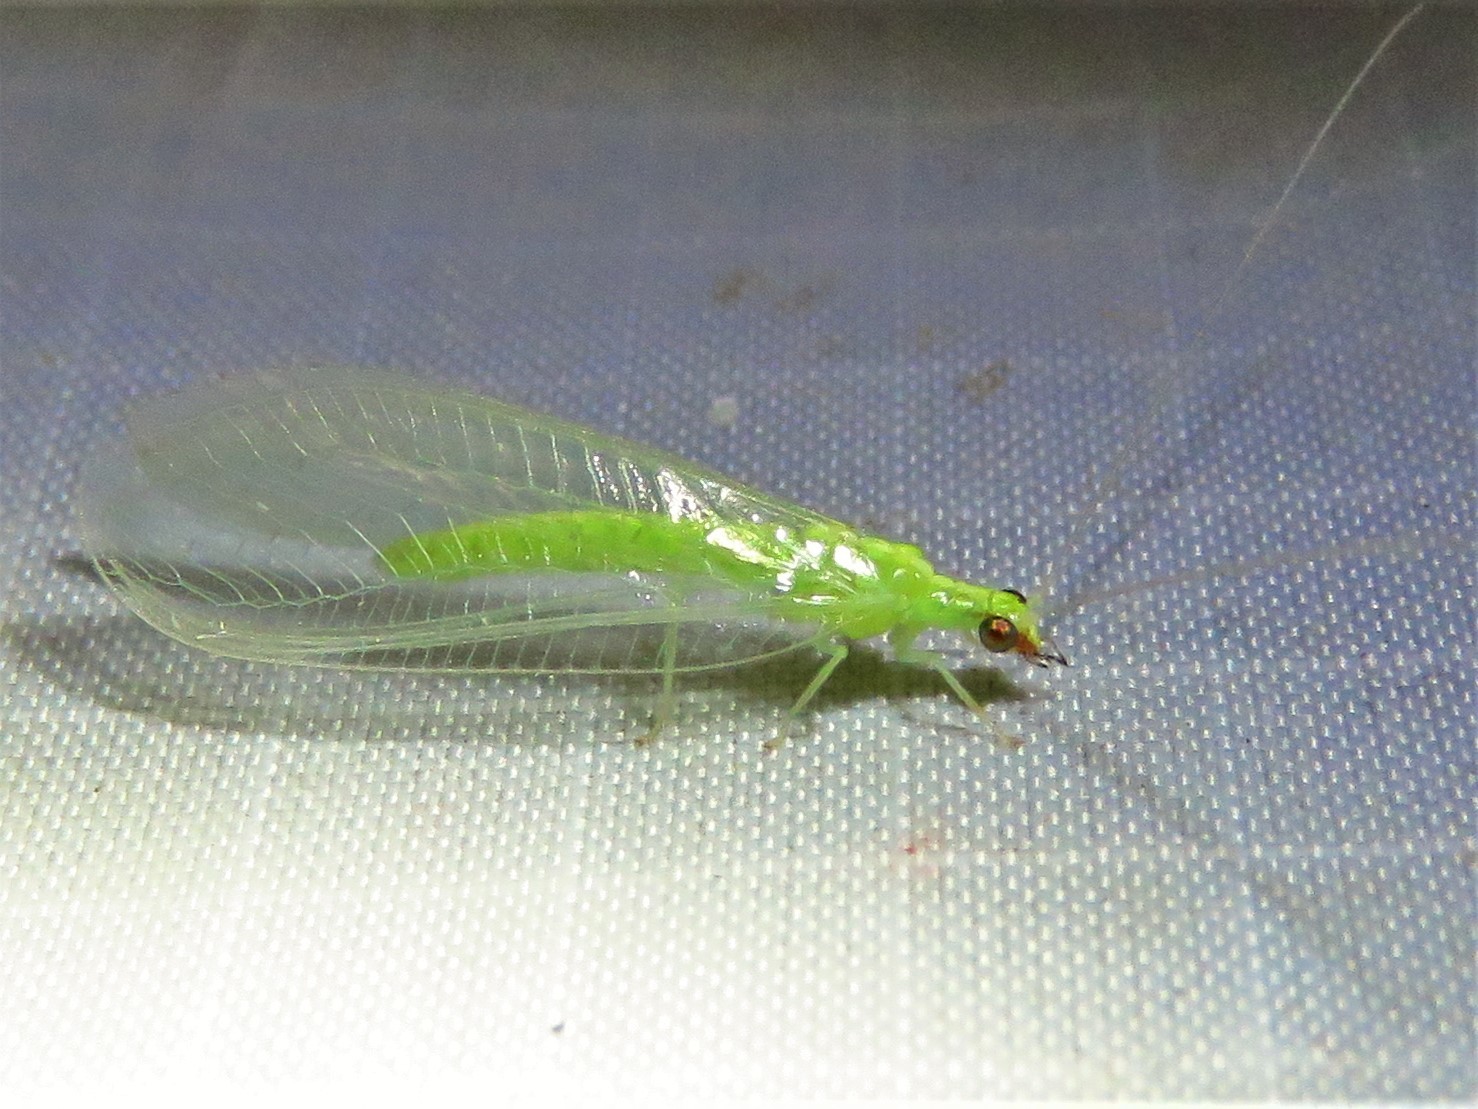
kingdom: Animalia
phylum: Arthropoda
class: Insecta
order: Neuroptera
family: Chrysopidae
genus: Chrysoperla
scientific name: Chrysoperla rufilabris
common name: Red-lipped green lacewing
